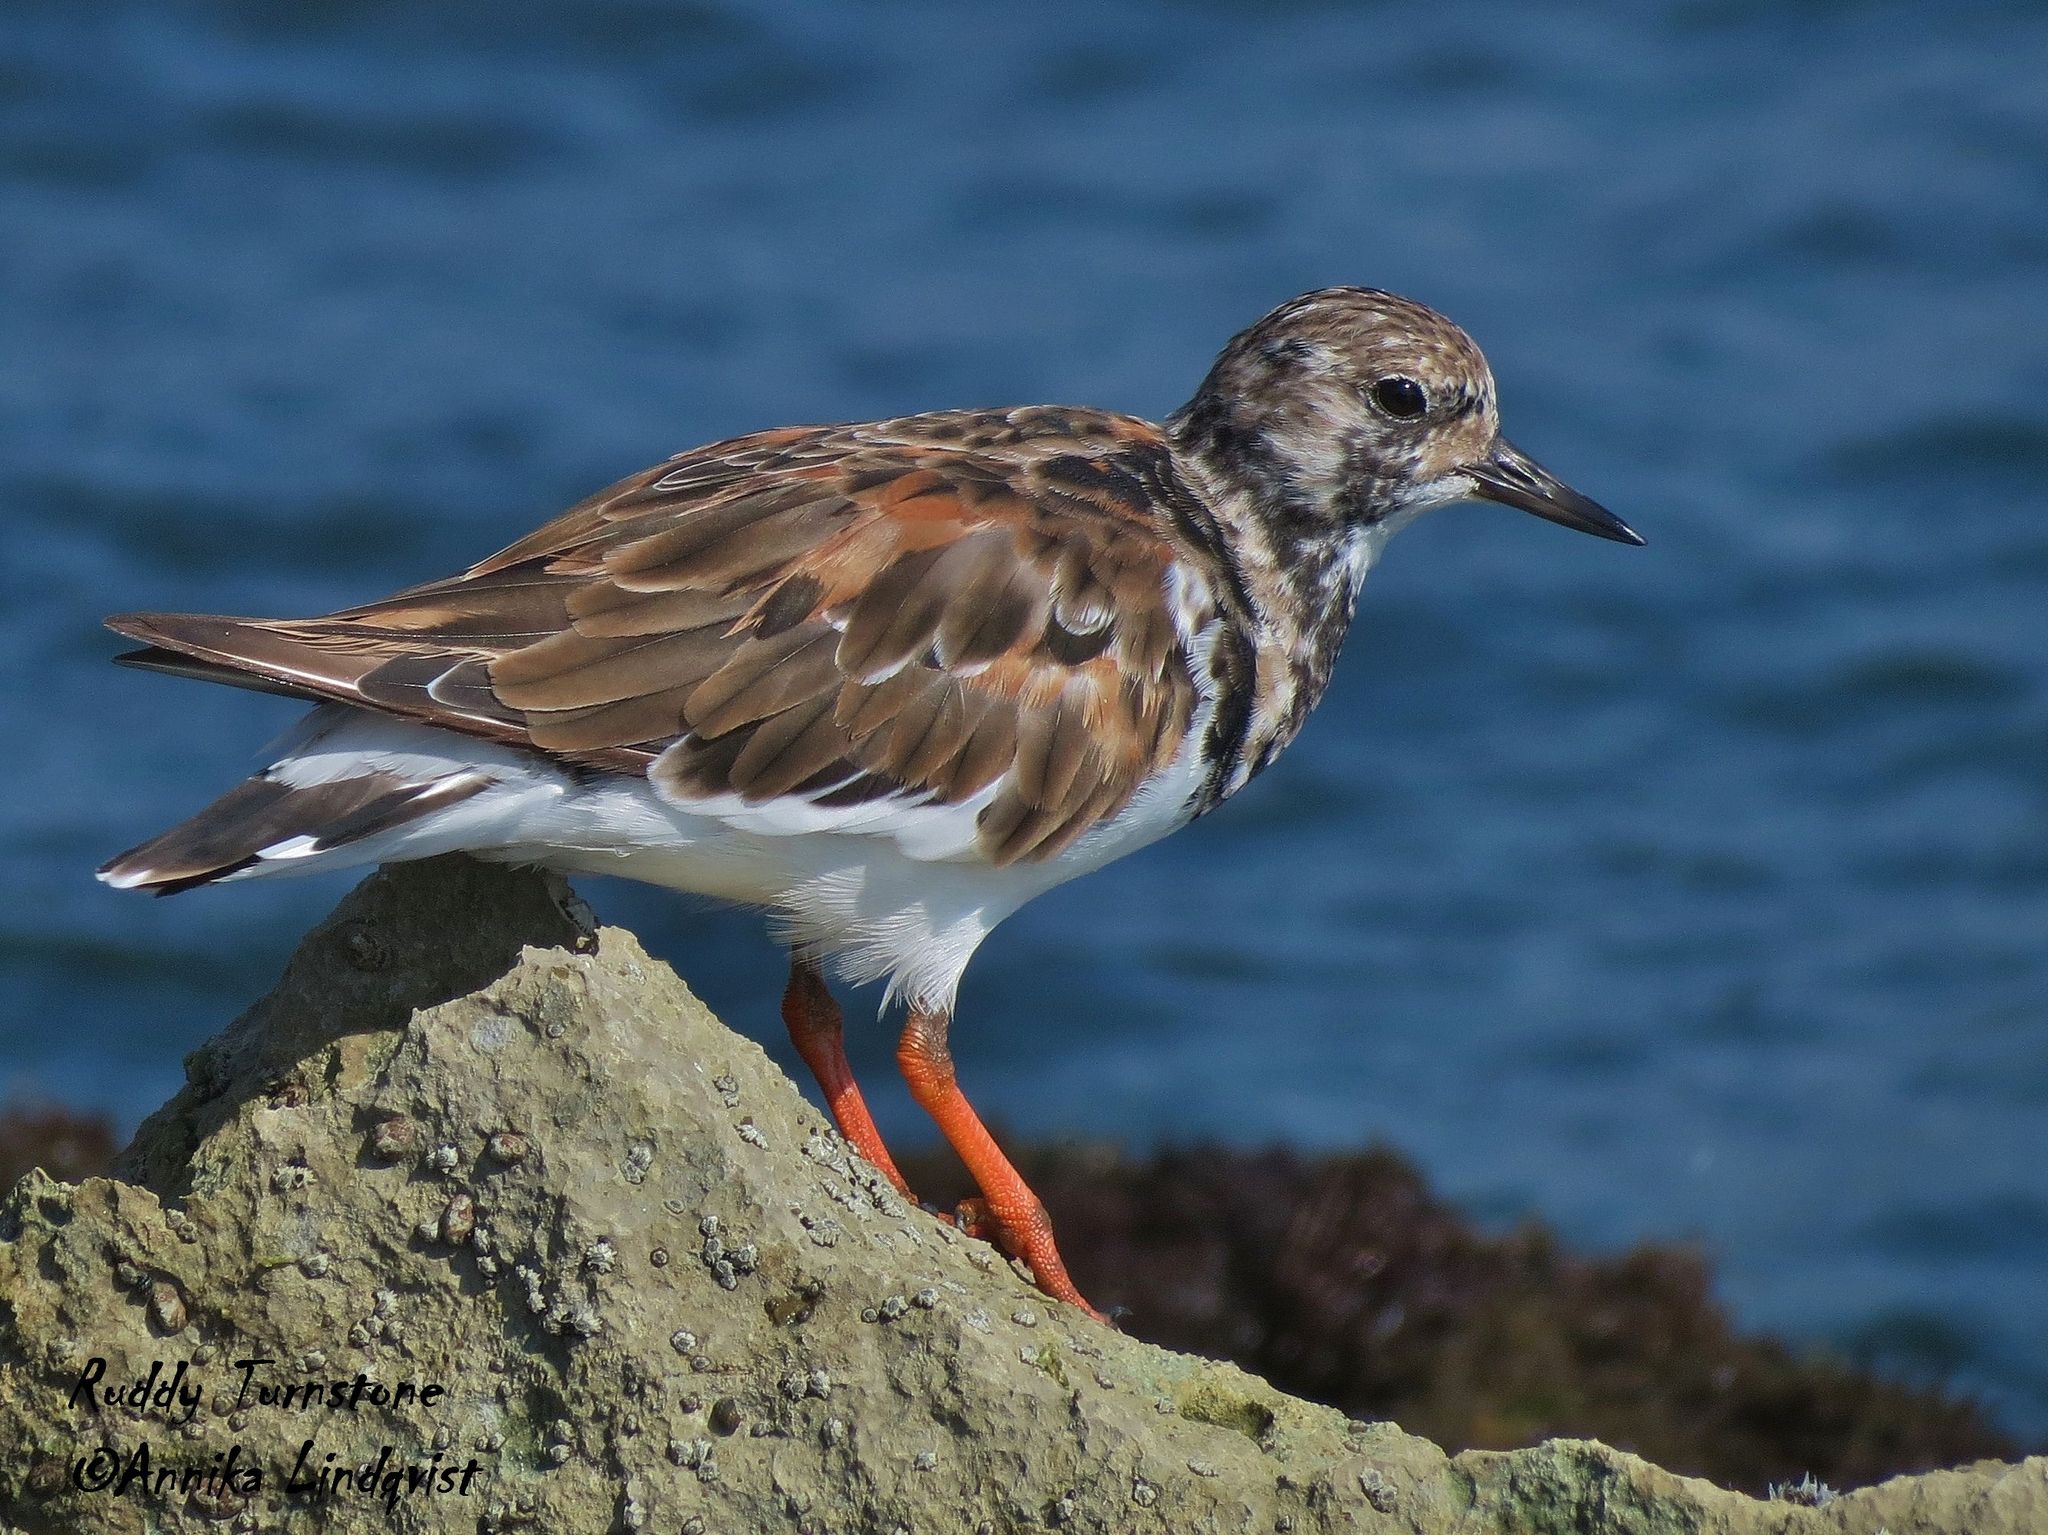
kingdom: Animalia
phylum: Chordata
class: Aves
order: Charadriiformes
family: Scolopacidae
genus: Arenaria
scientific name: Arenaria interpres
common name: Ruddy turnstone
